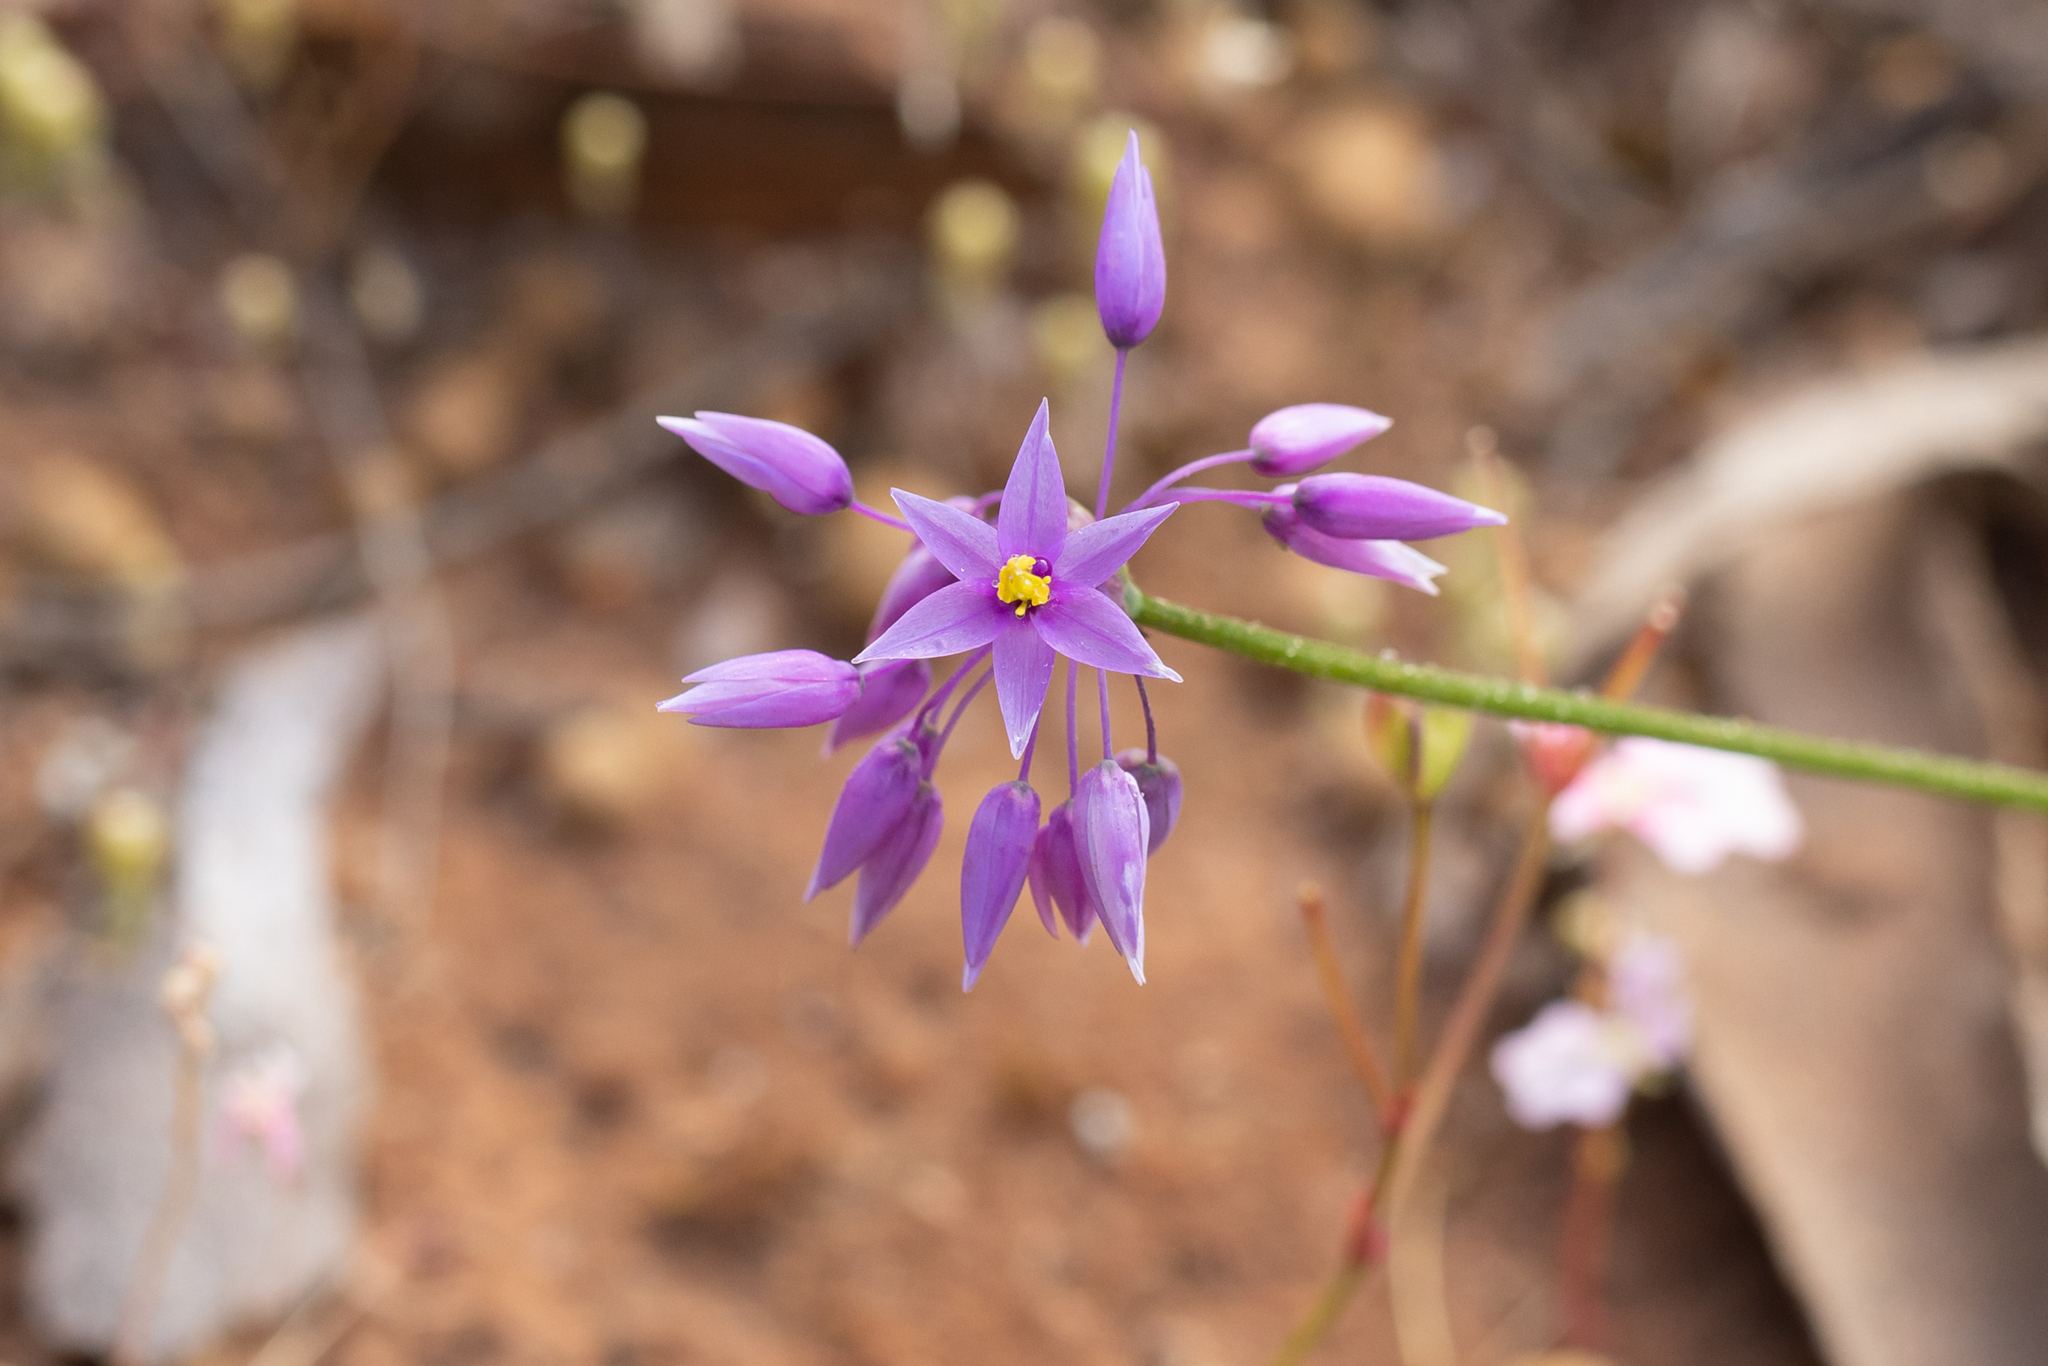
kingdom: Plantae
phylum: Tracheophyta
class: Liliopsida
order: Asparagales
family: Asparagaceae
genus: Sowerbaea
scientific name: Sowerbaea laxiflora
